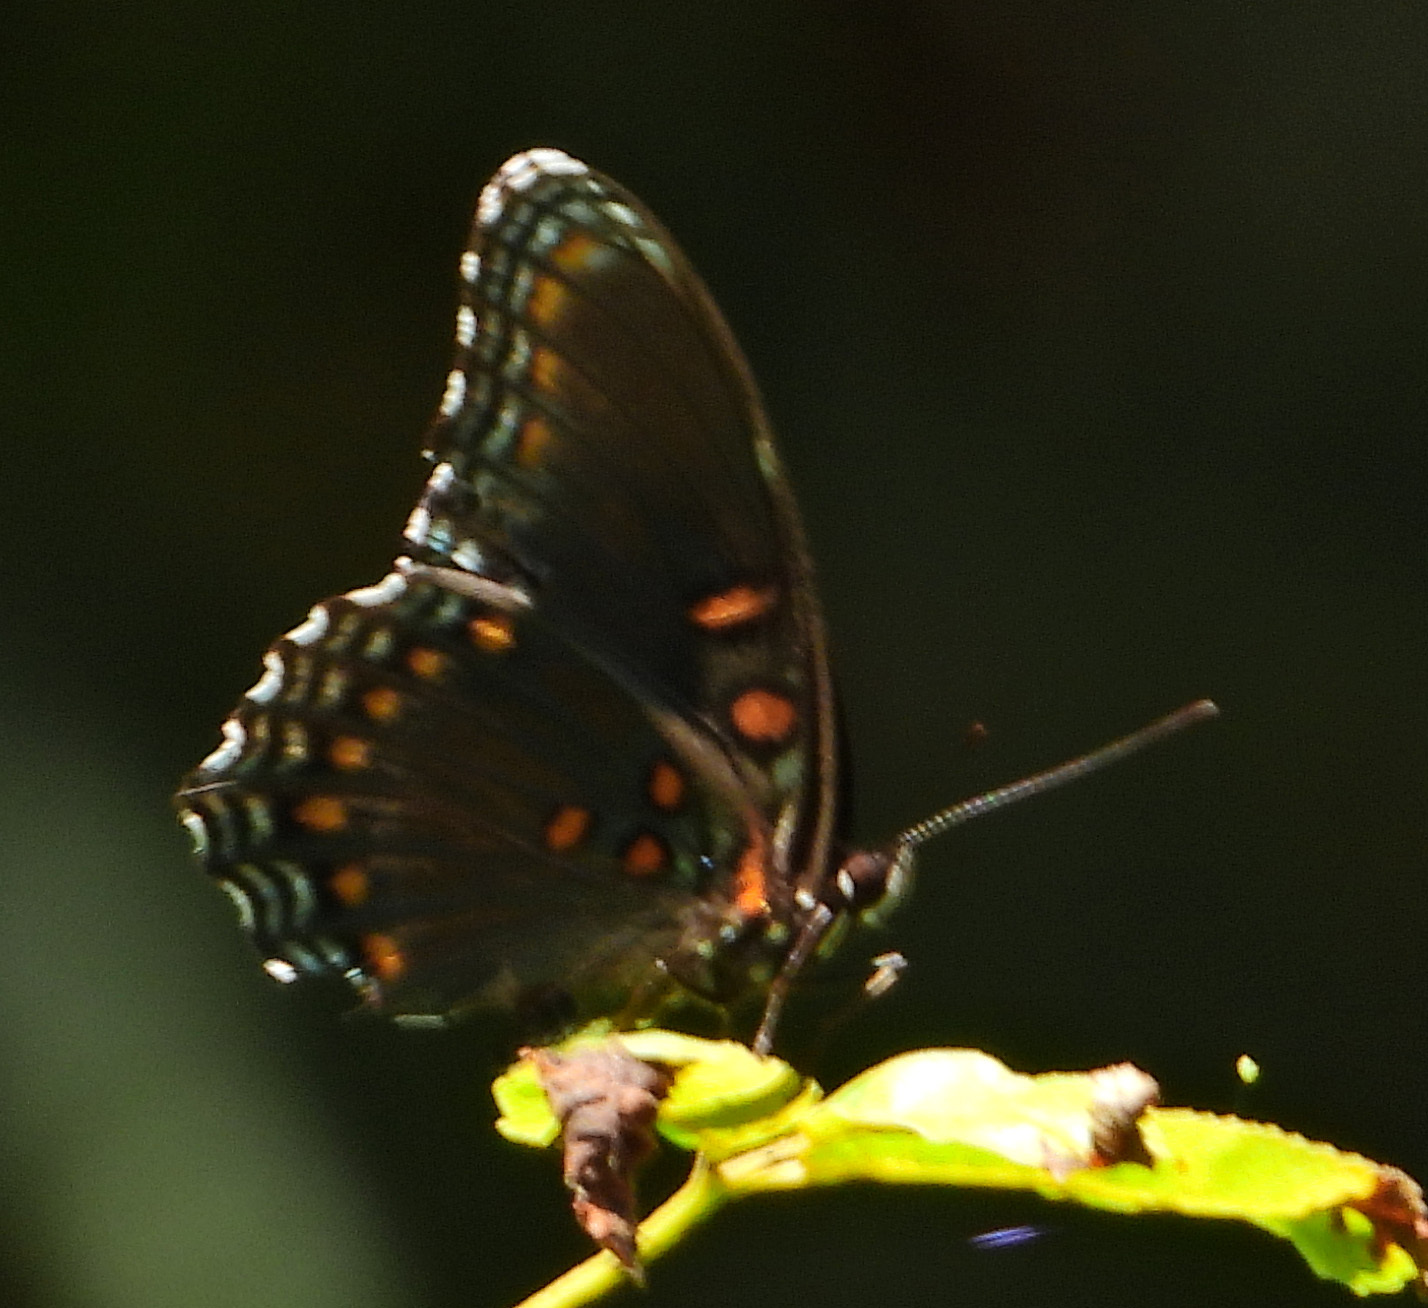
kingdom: Animalia
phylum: Arthropoda
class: Insecta
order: Lepidoptera
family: Nymphalidae
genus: Limenitis
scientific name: Limenitis astyanax
